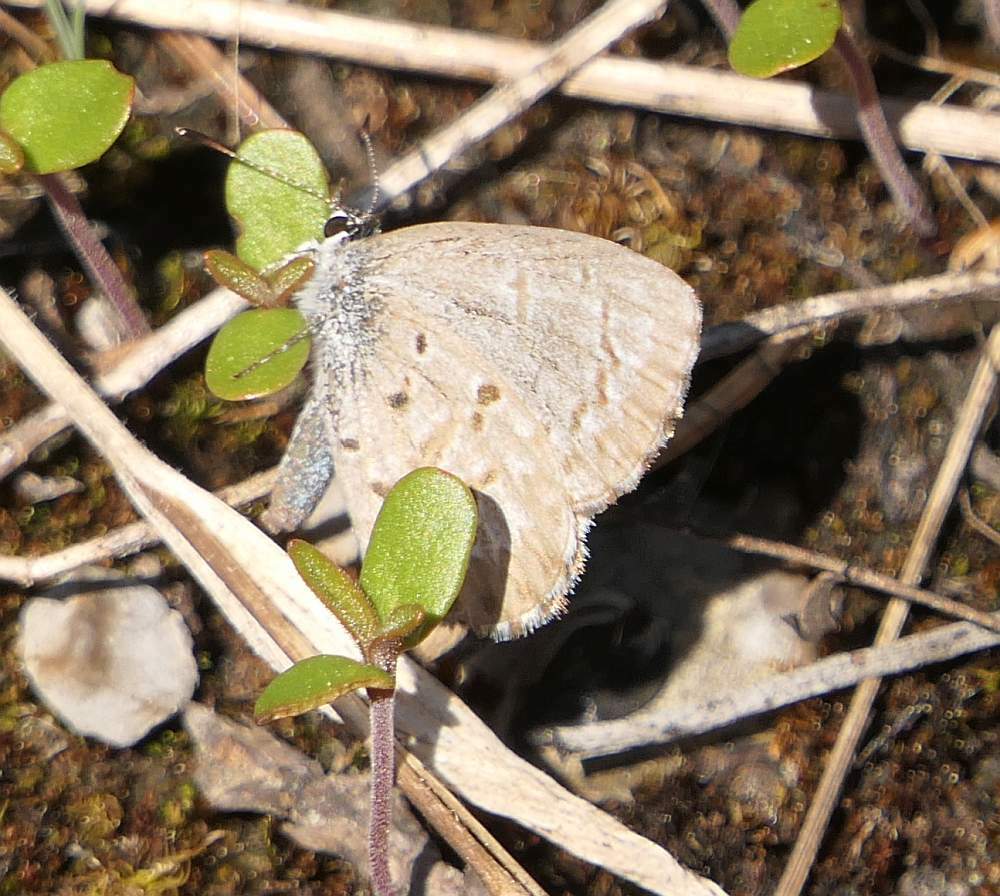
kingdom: Animalia
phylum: Arthropoda
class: Insecta
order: Lepidoptera
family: Lycaenidae
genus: Celastrina
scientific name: Celastrina lucia
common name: Lucia azure
